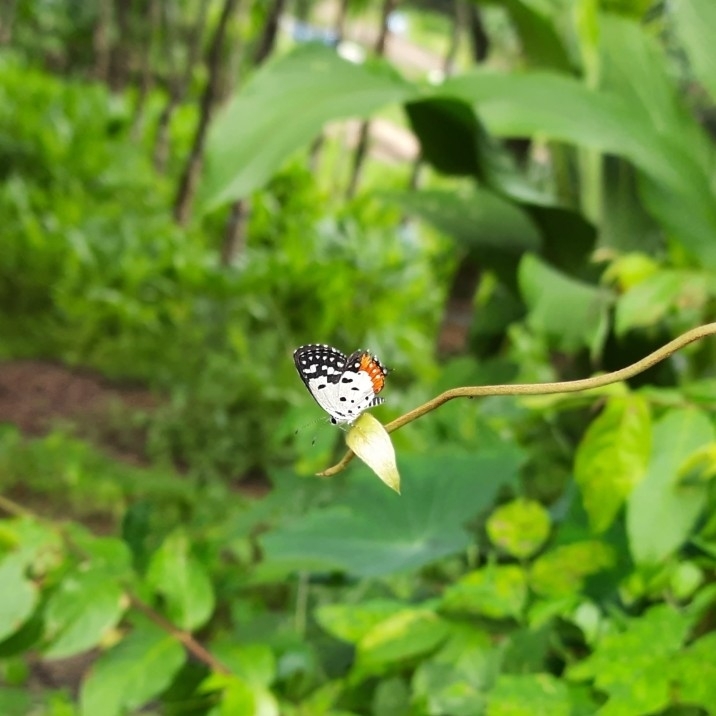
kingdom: Animalia
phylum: Arthropoda
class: Insecta
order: Lepidoptera
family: Lycaenidae
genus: Talicada
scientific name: Talicada nyseus
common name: Red pierrot
